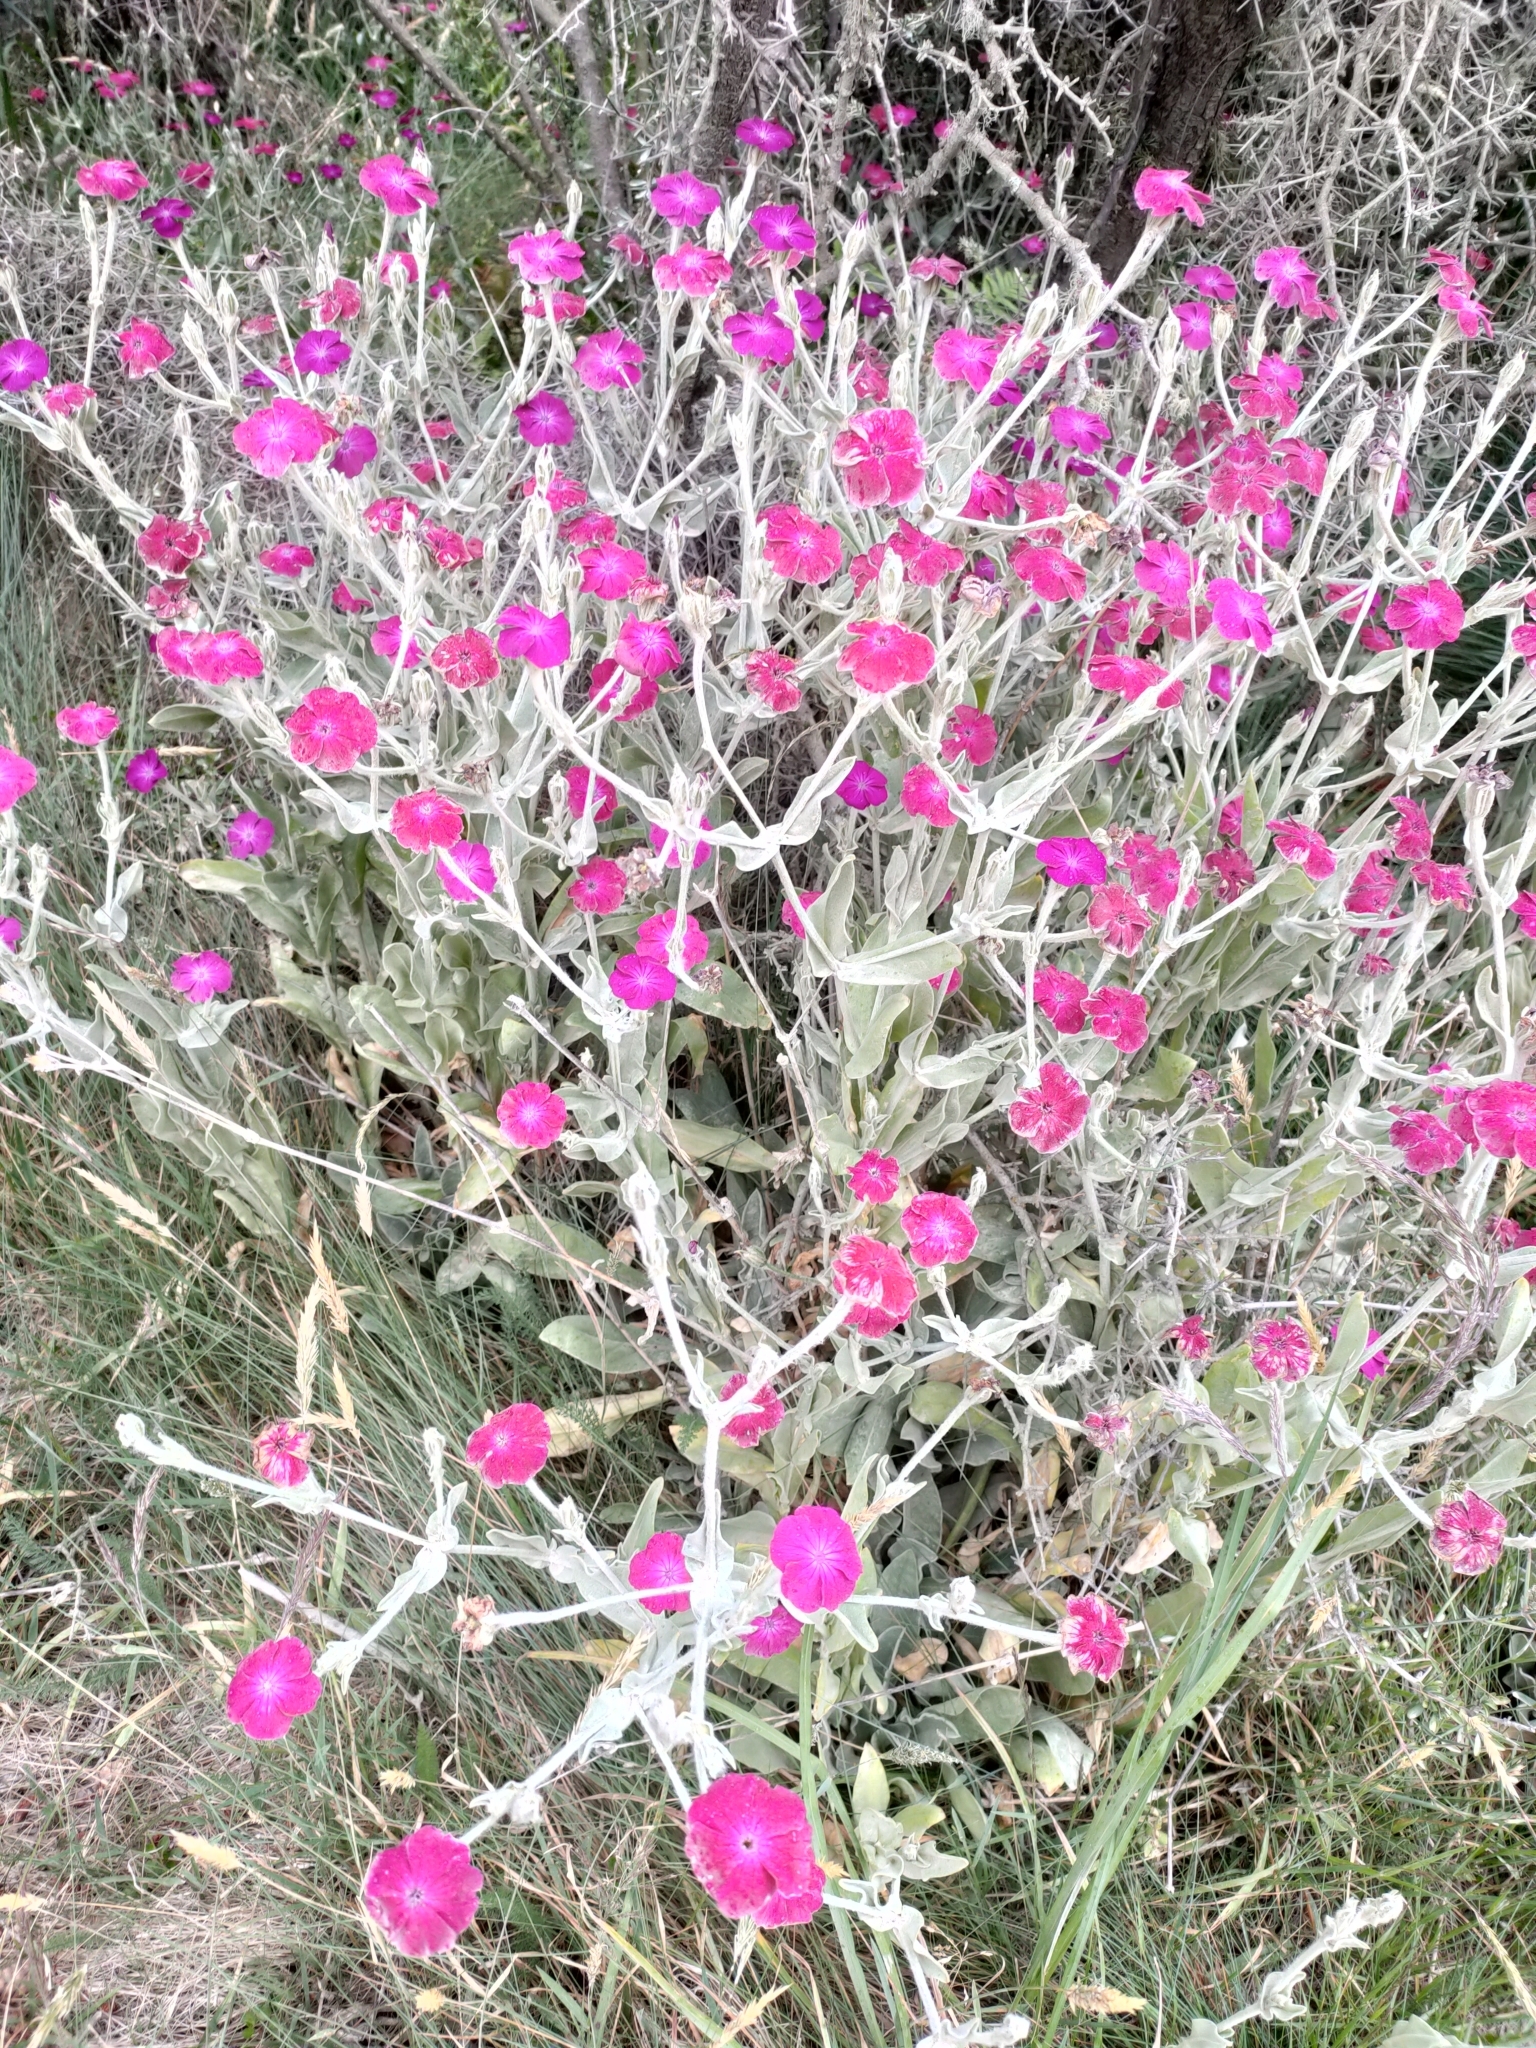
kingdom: Plantae
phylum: Tracheophyta
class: Magnoliopsida
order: Caryophyllales
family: Caryophyllaceae
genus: Silene
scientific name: Silene coronaria
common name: Rose campion
